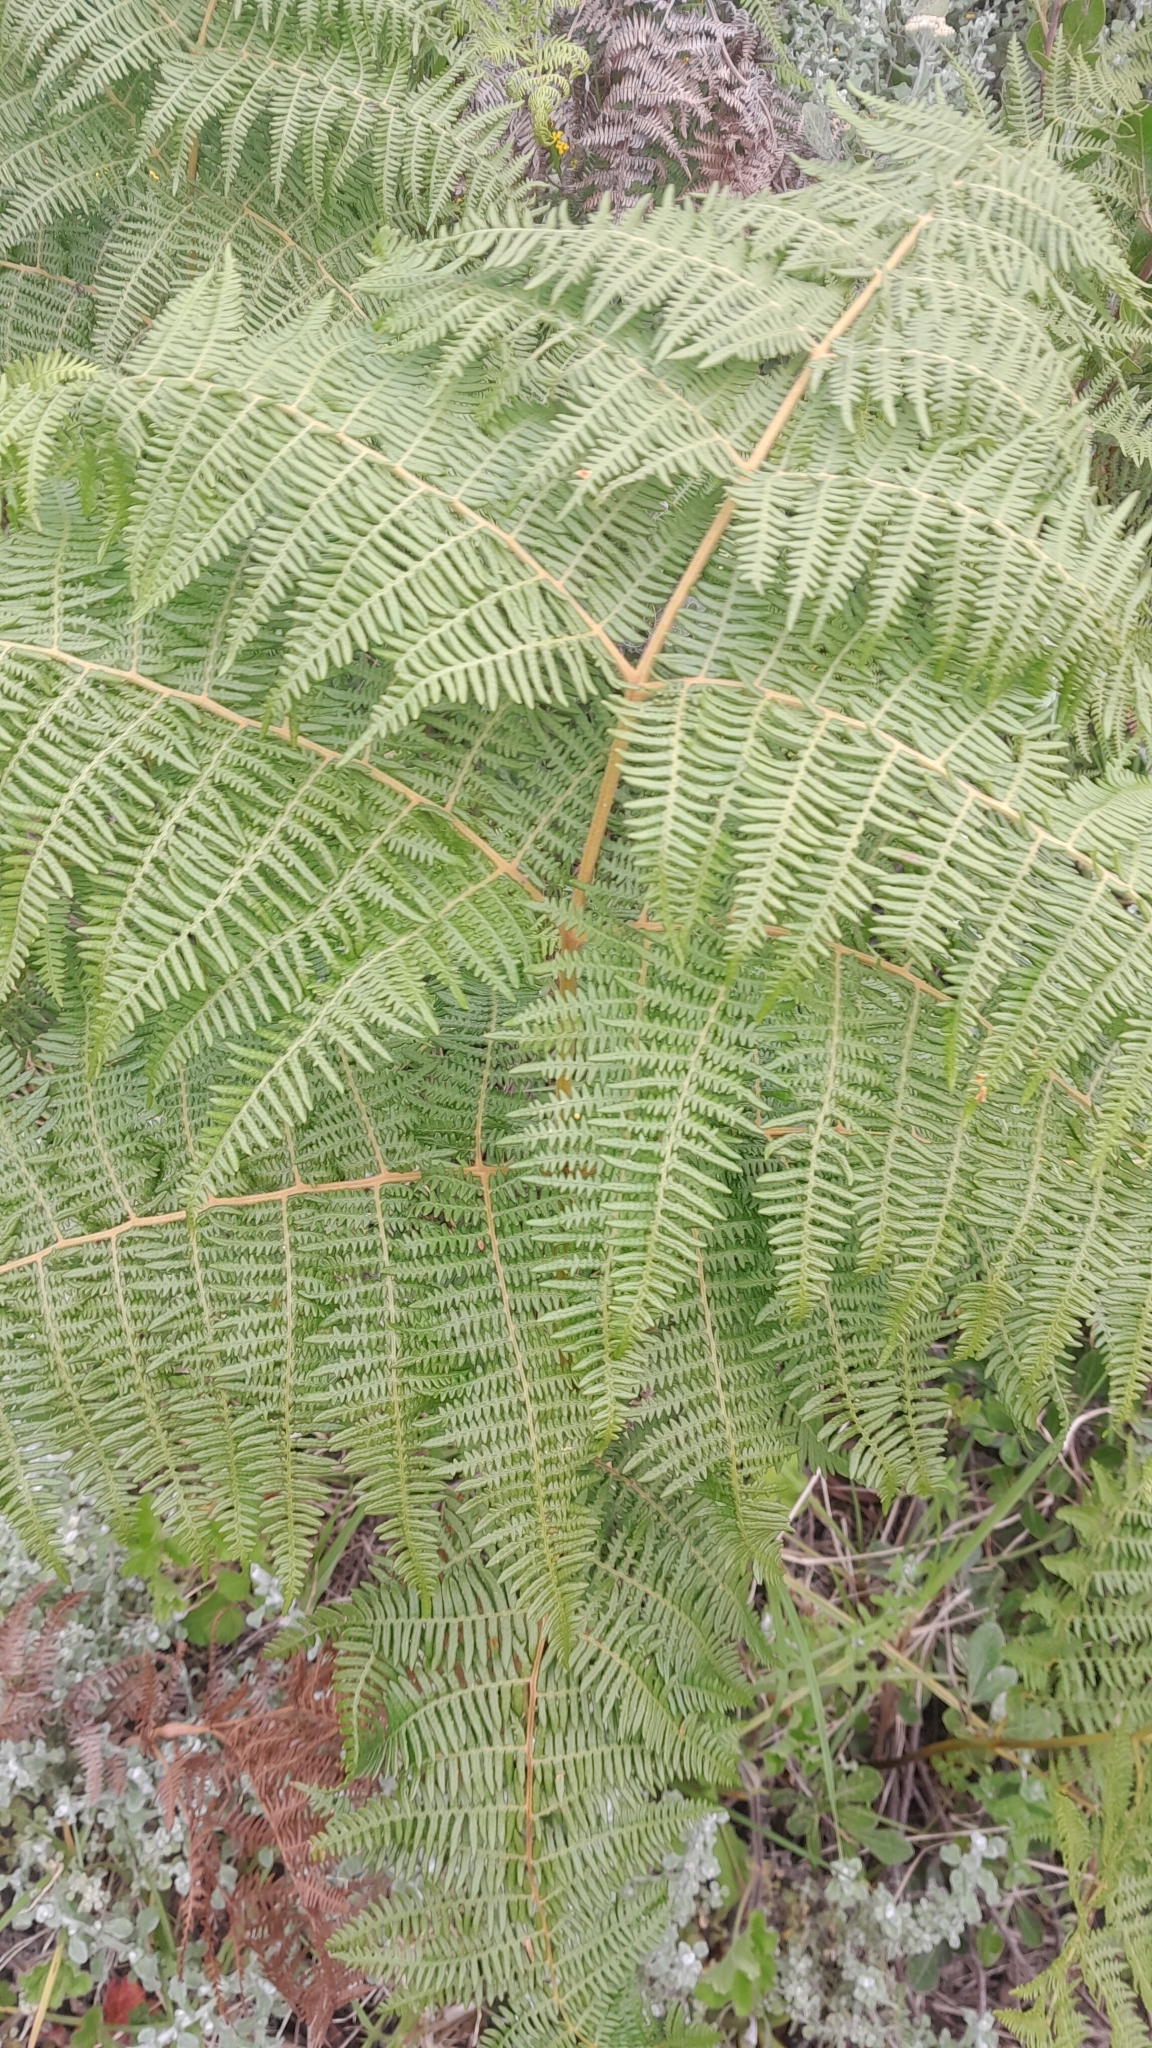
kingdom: Plantae
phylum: Tracheophyta
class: Polypodiopsida
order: Polypodiales
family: Dennstaedtiaceae
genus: Pteridium
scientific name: Pteridium aquilinum
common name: Bracken
